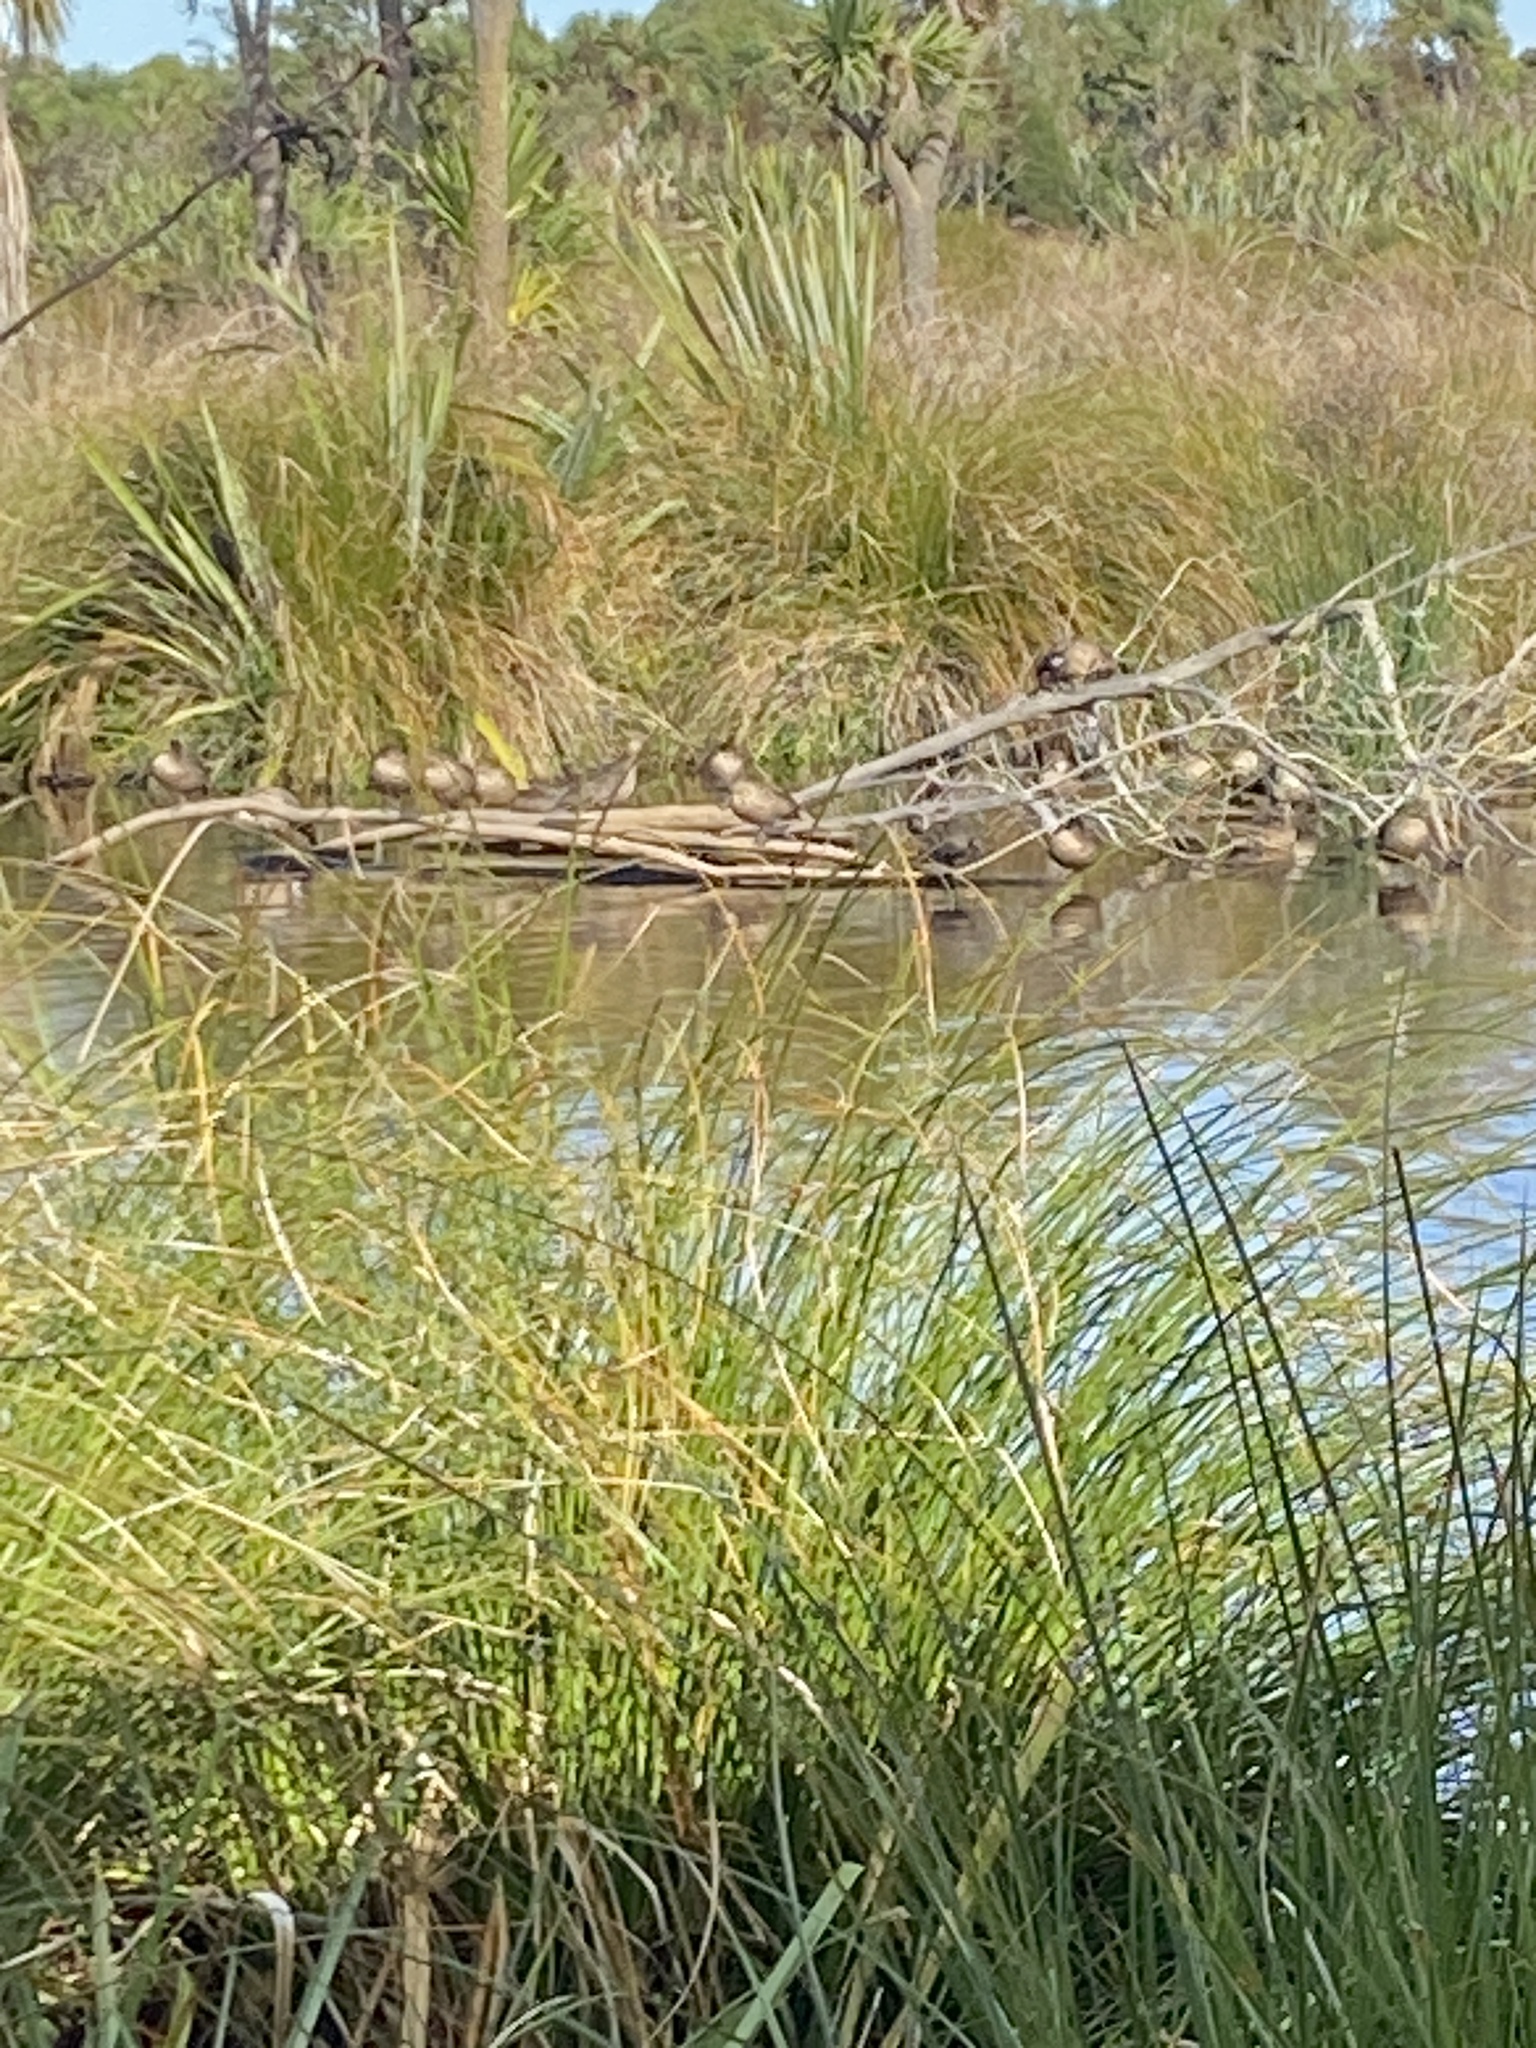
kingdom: Animalia
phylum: Chordata
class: Aves
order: Anseriformes
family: Anatidae
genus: Anas
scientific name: Anas gracilis
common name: Grey teal
